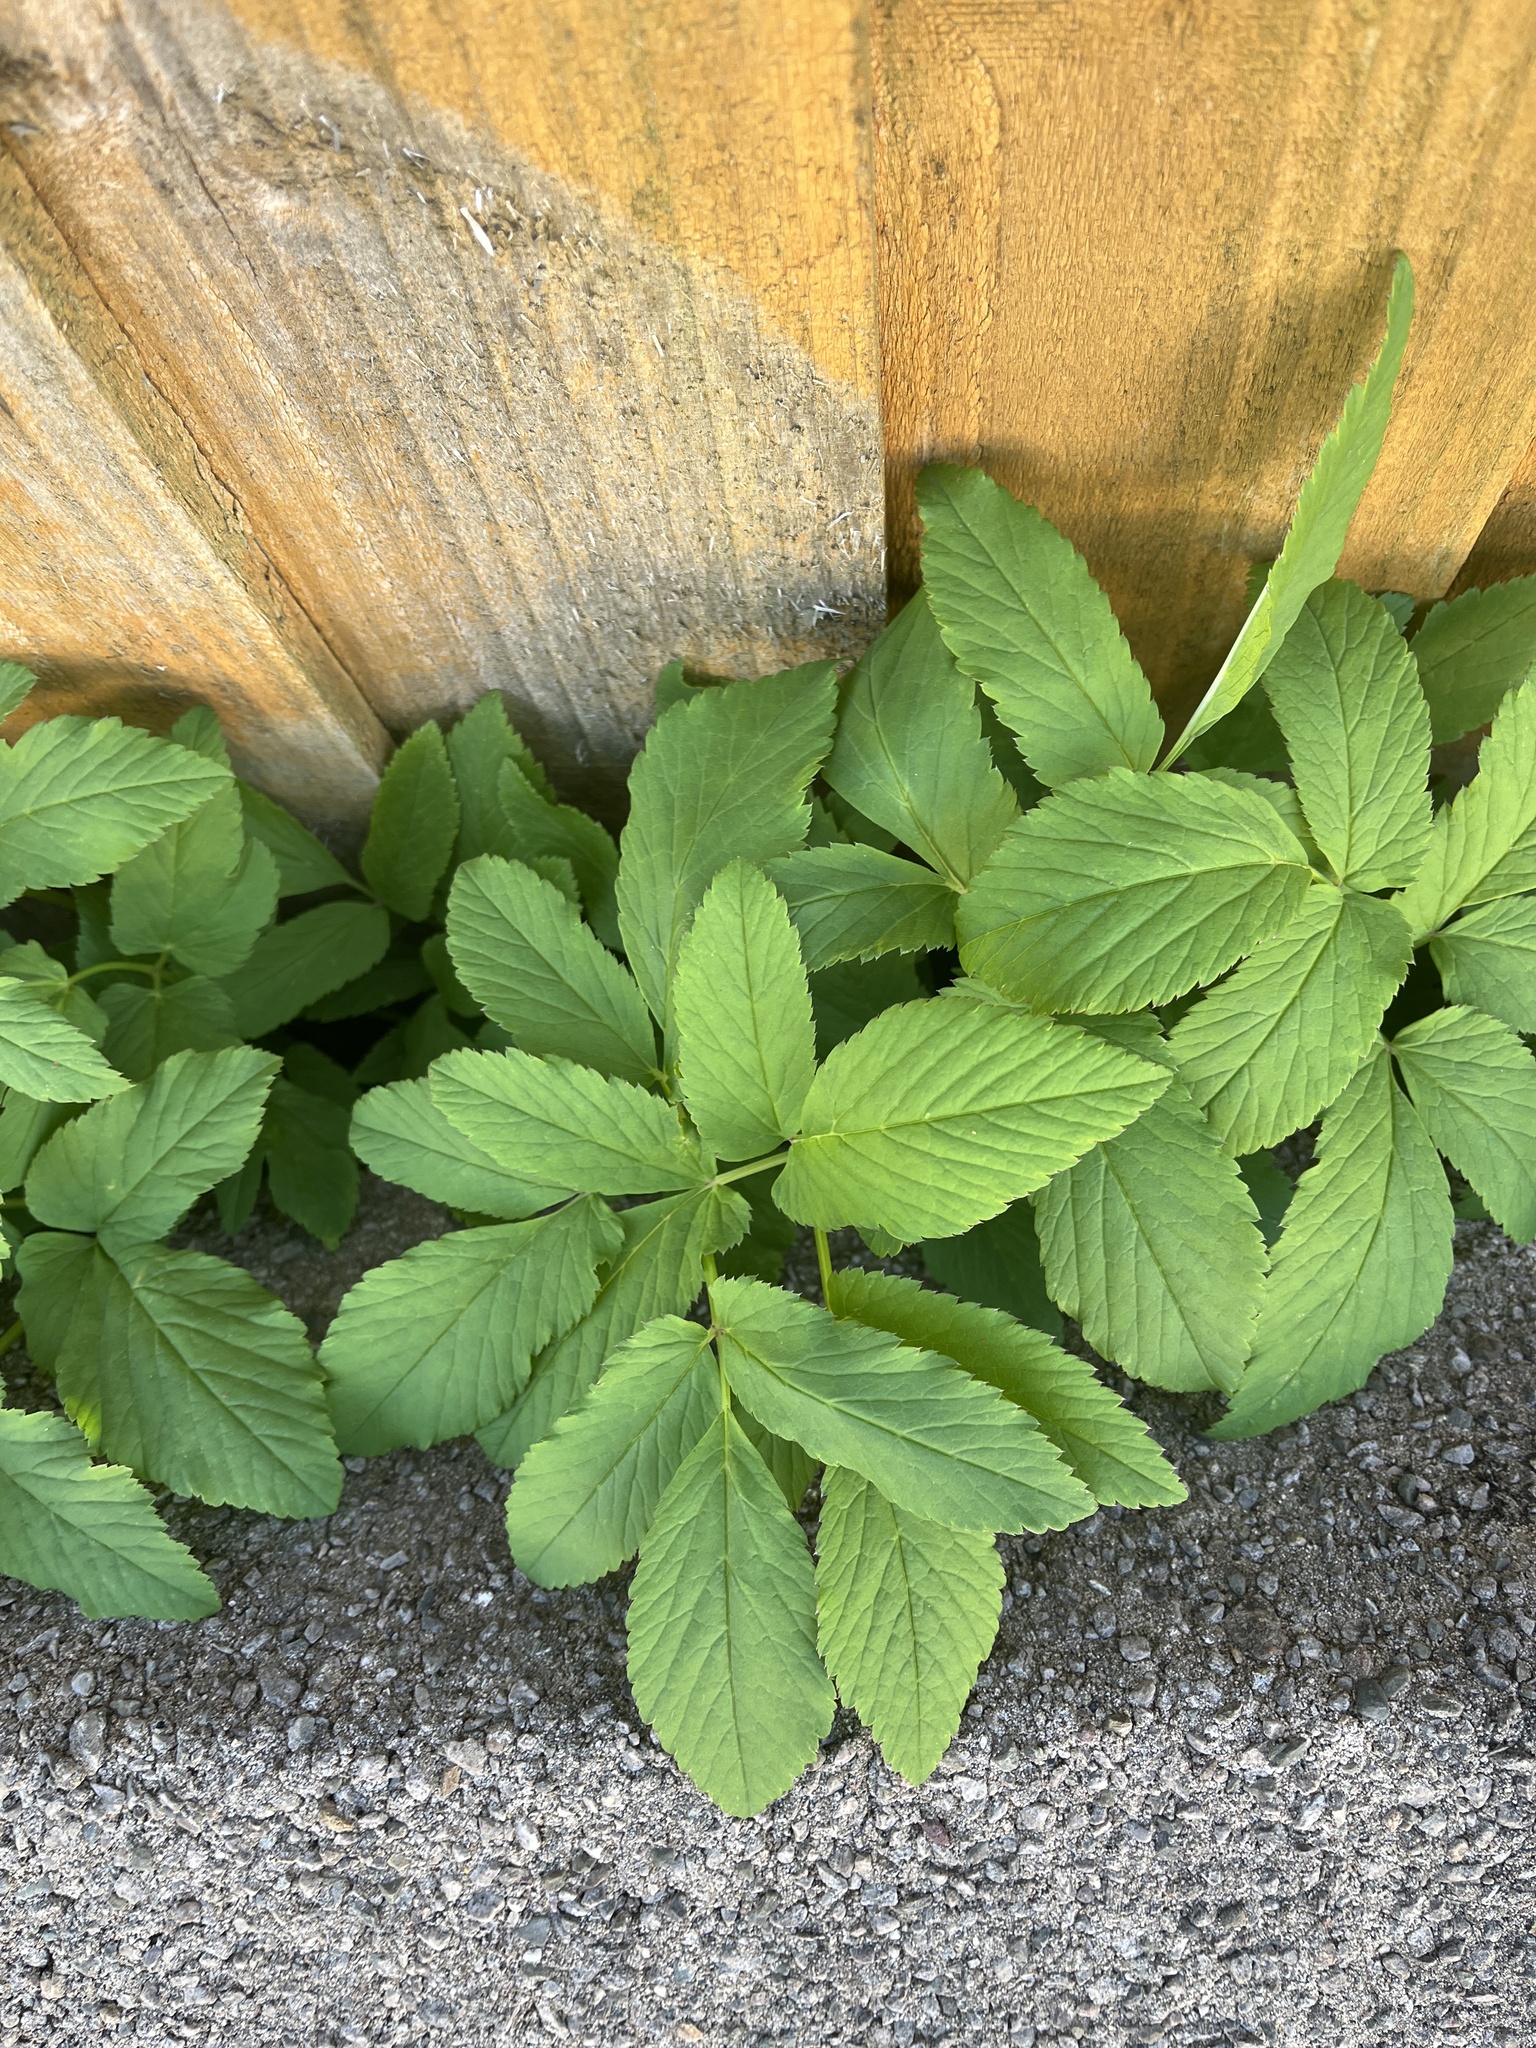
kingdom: Plantae
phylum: Tracheophyta
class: Magnoliopsida
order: Apiales
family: Apiaceae
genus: Aegopodium
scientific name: Aegopodium podagraria
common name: Ground-elder
